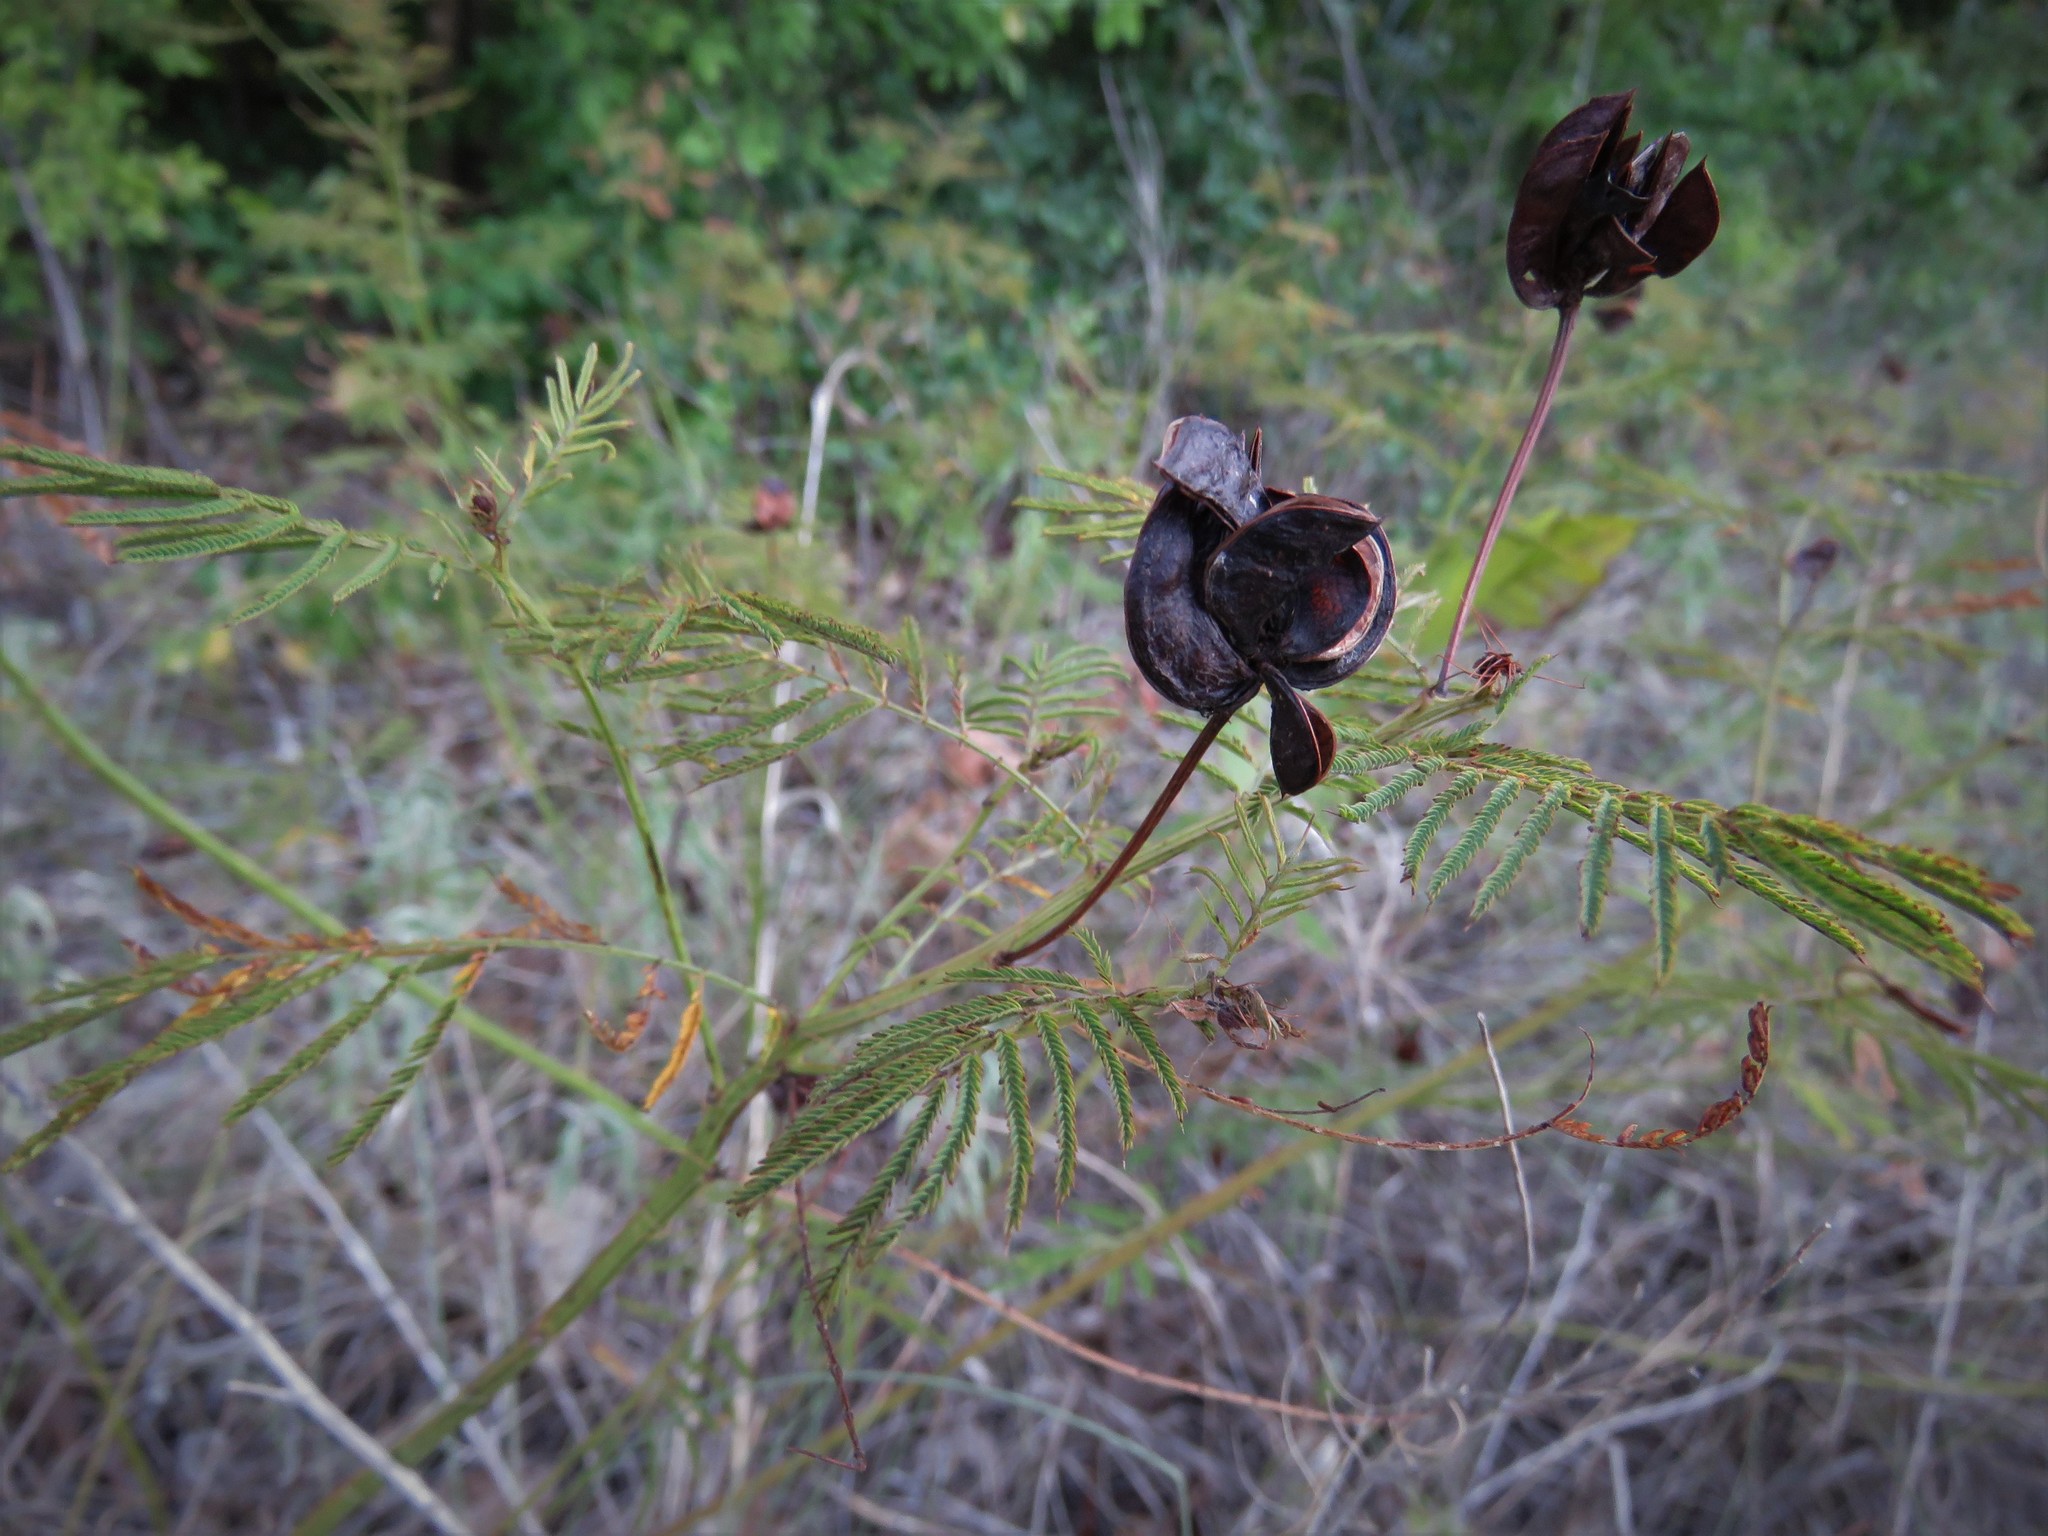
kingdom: Plantae
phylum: Tracheophyta
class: Magnoliopsida
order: Fabales
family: Fabaceae
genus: Desmanthus
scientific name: Desmanthus illinoensis
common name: Illinois bundle-flower
